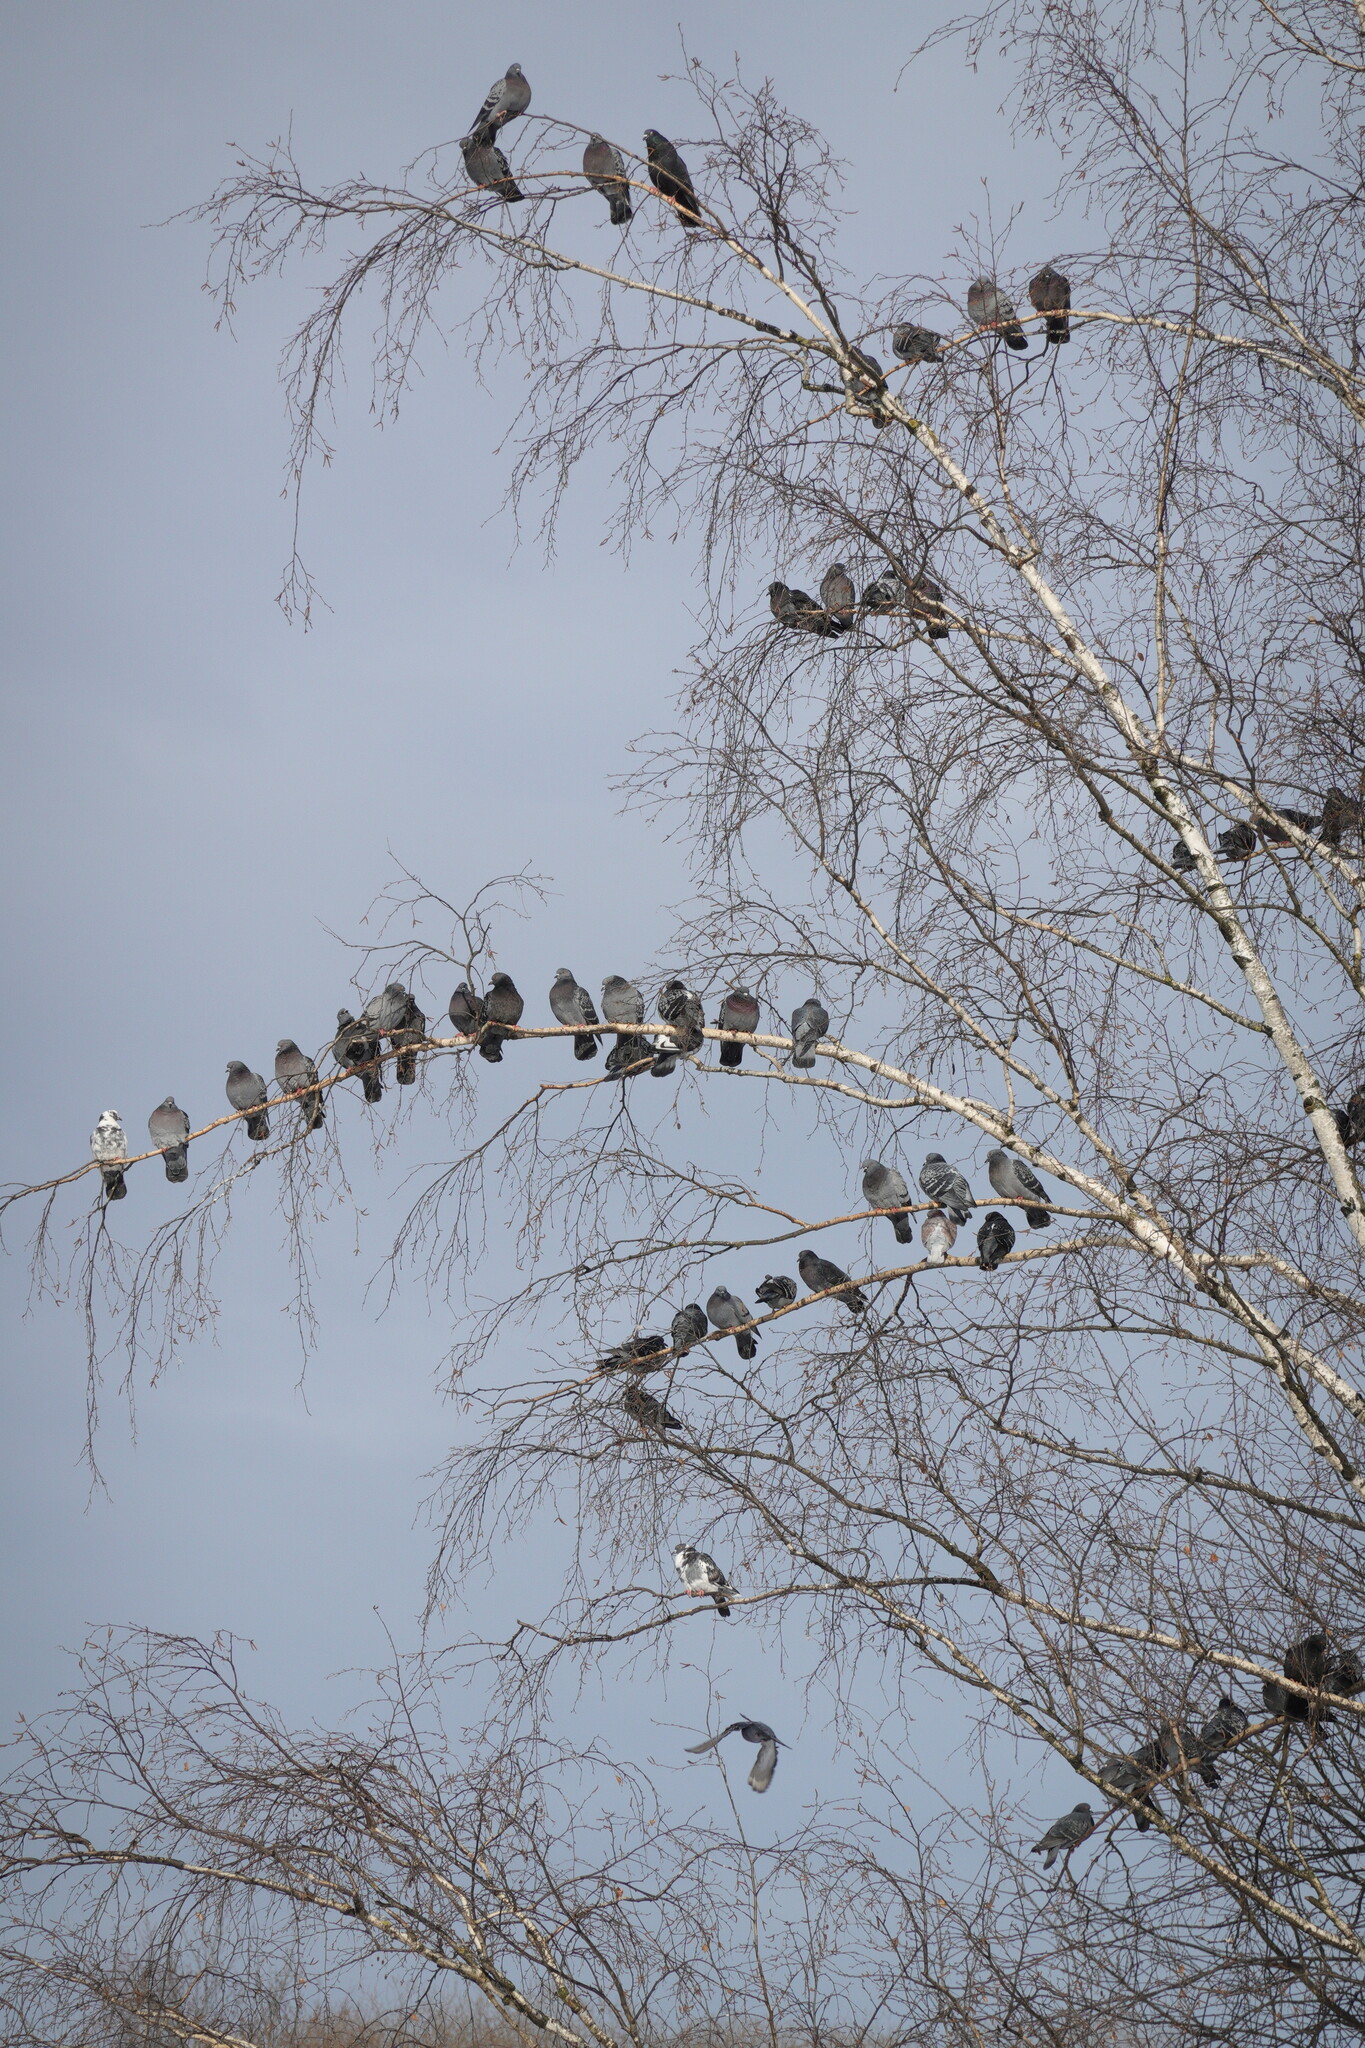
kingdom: Animalia
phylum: Chordata
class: Aves
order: Columbiformes
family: Columbidae
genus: Columba
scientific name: Columba livia
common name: Rock pigeon
